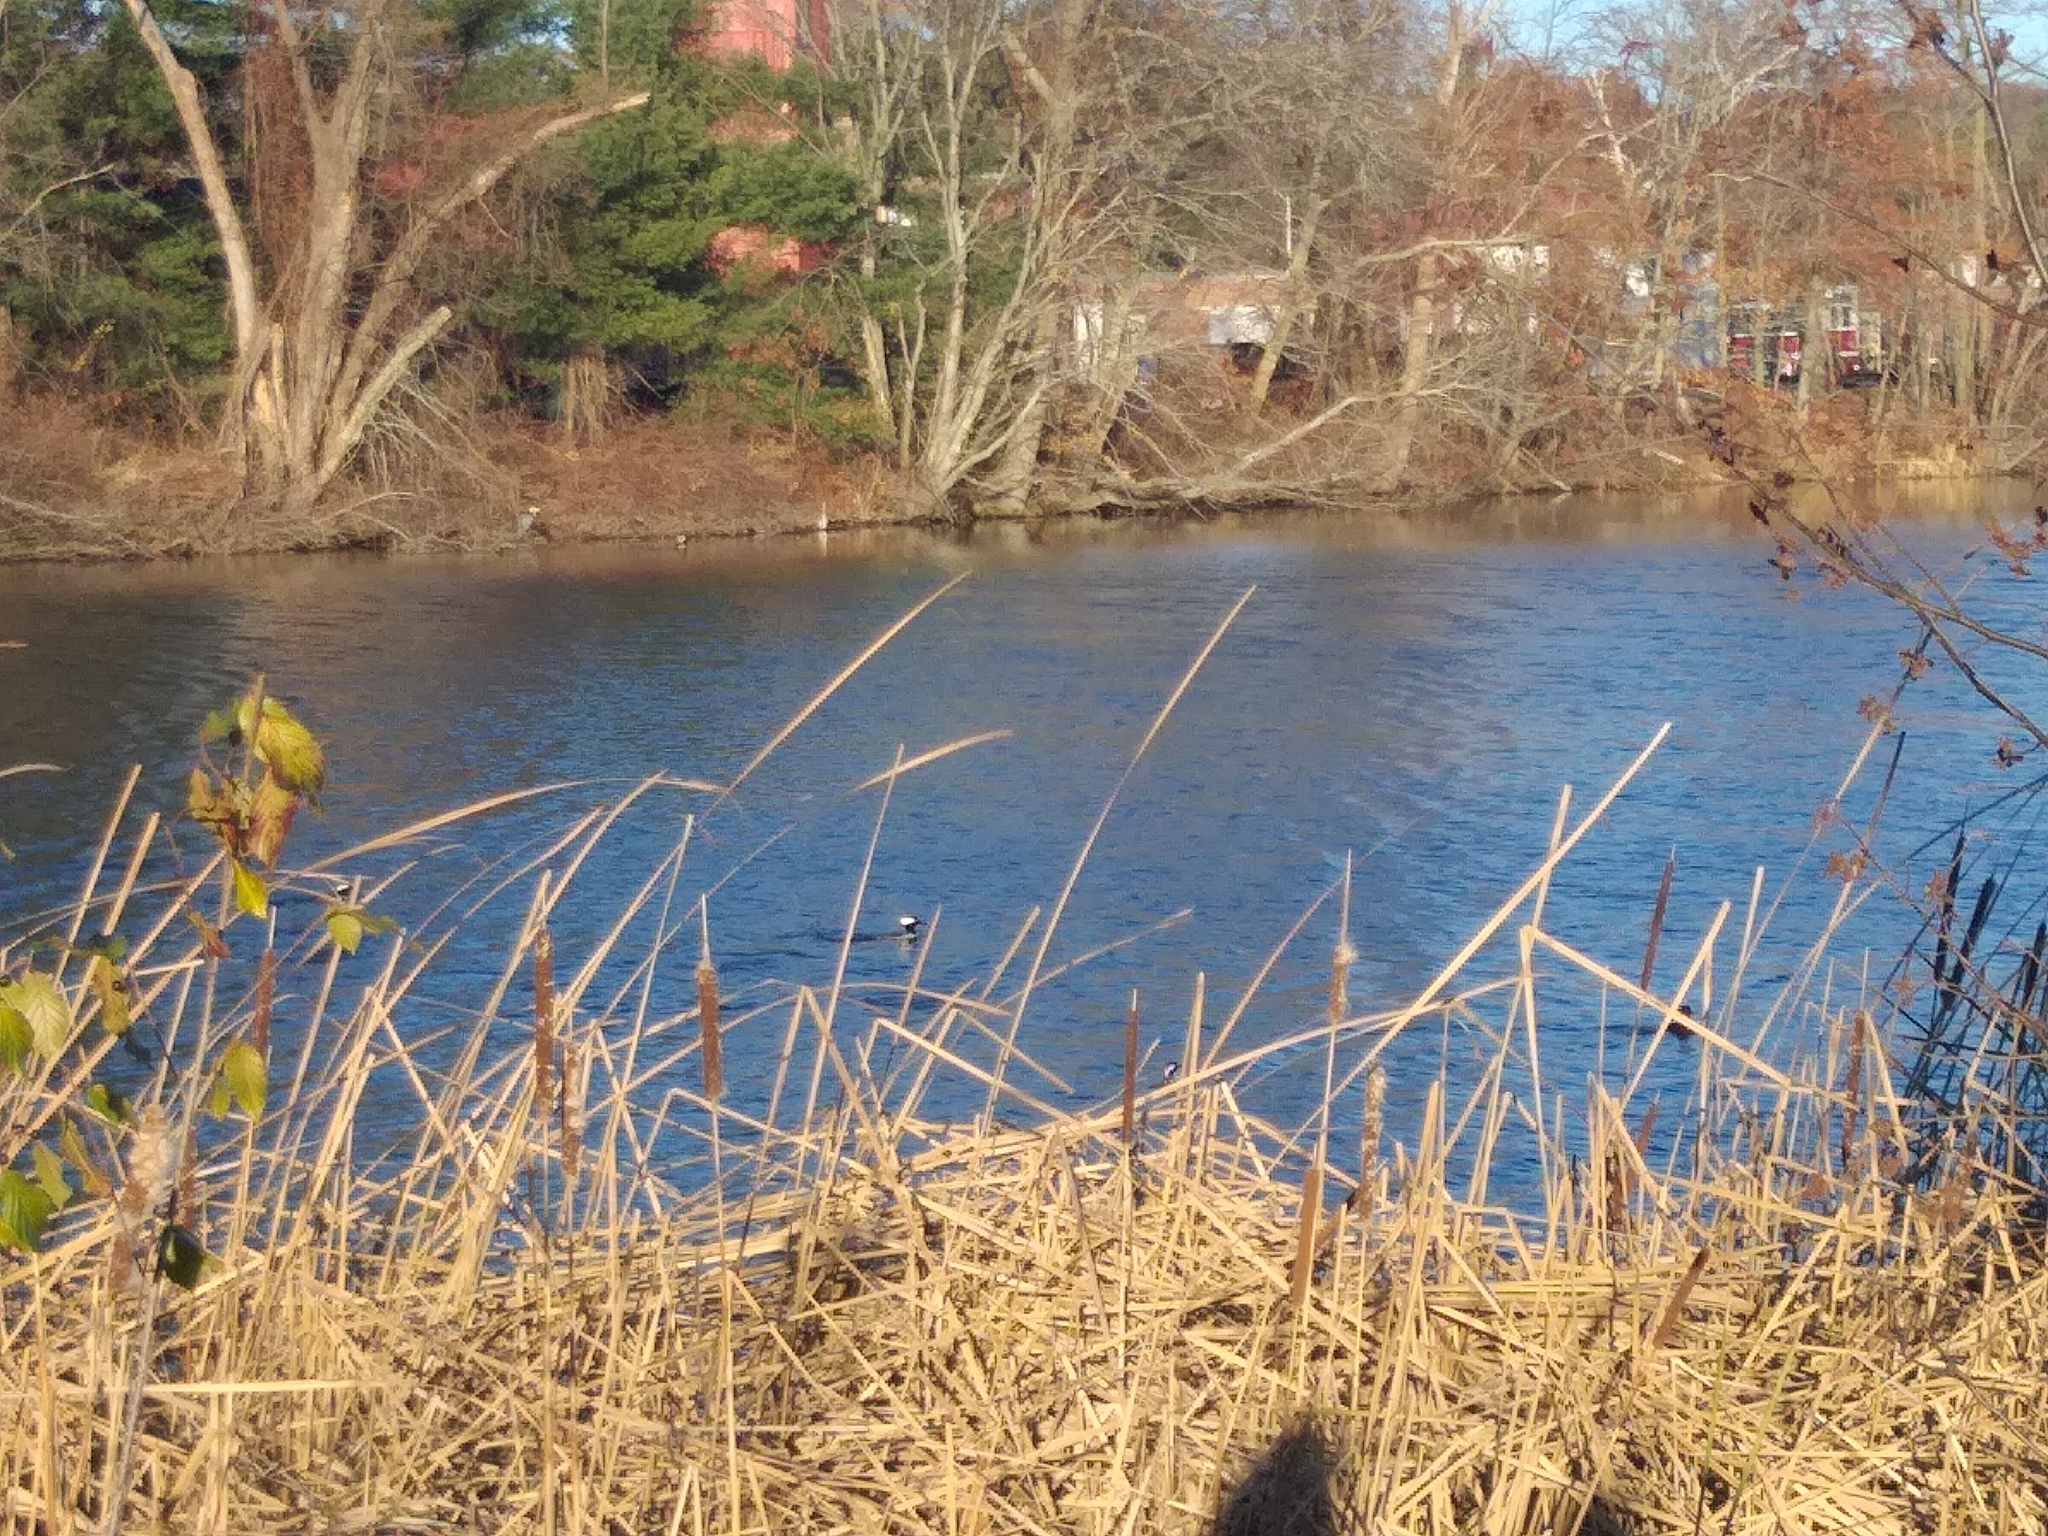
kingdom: Animalia
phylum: Chordata
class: Aves
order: Anseriformes
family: Anatidae
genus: Lophodytes
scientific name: Lophodytes cucullatus
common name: Hooded merganser
